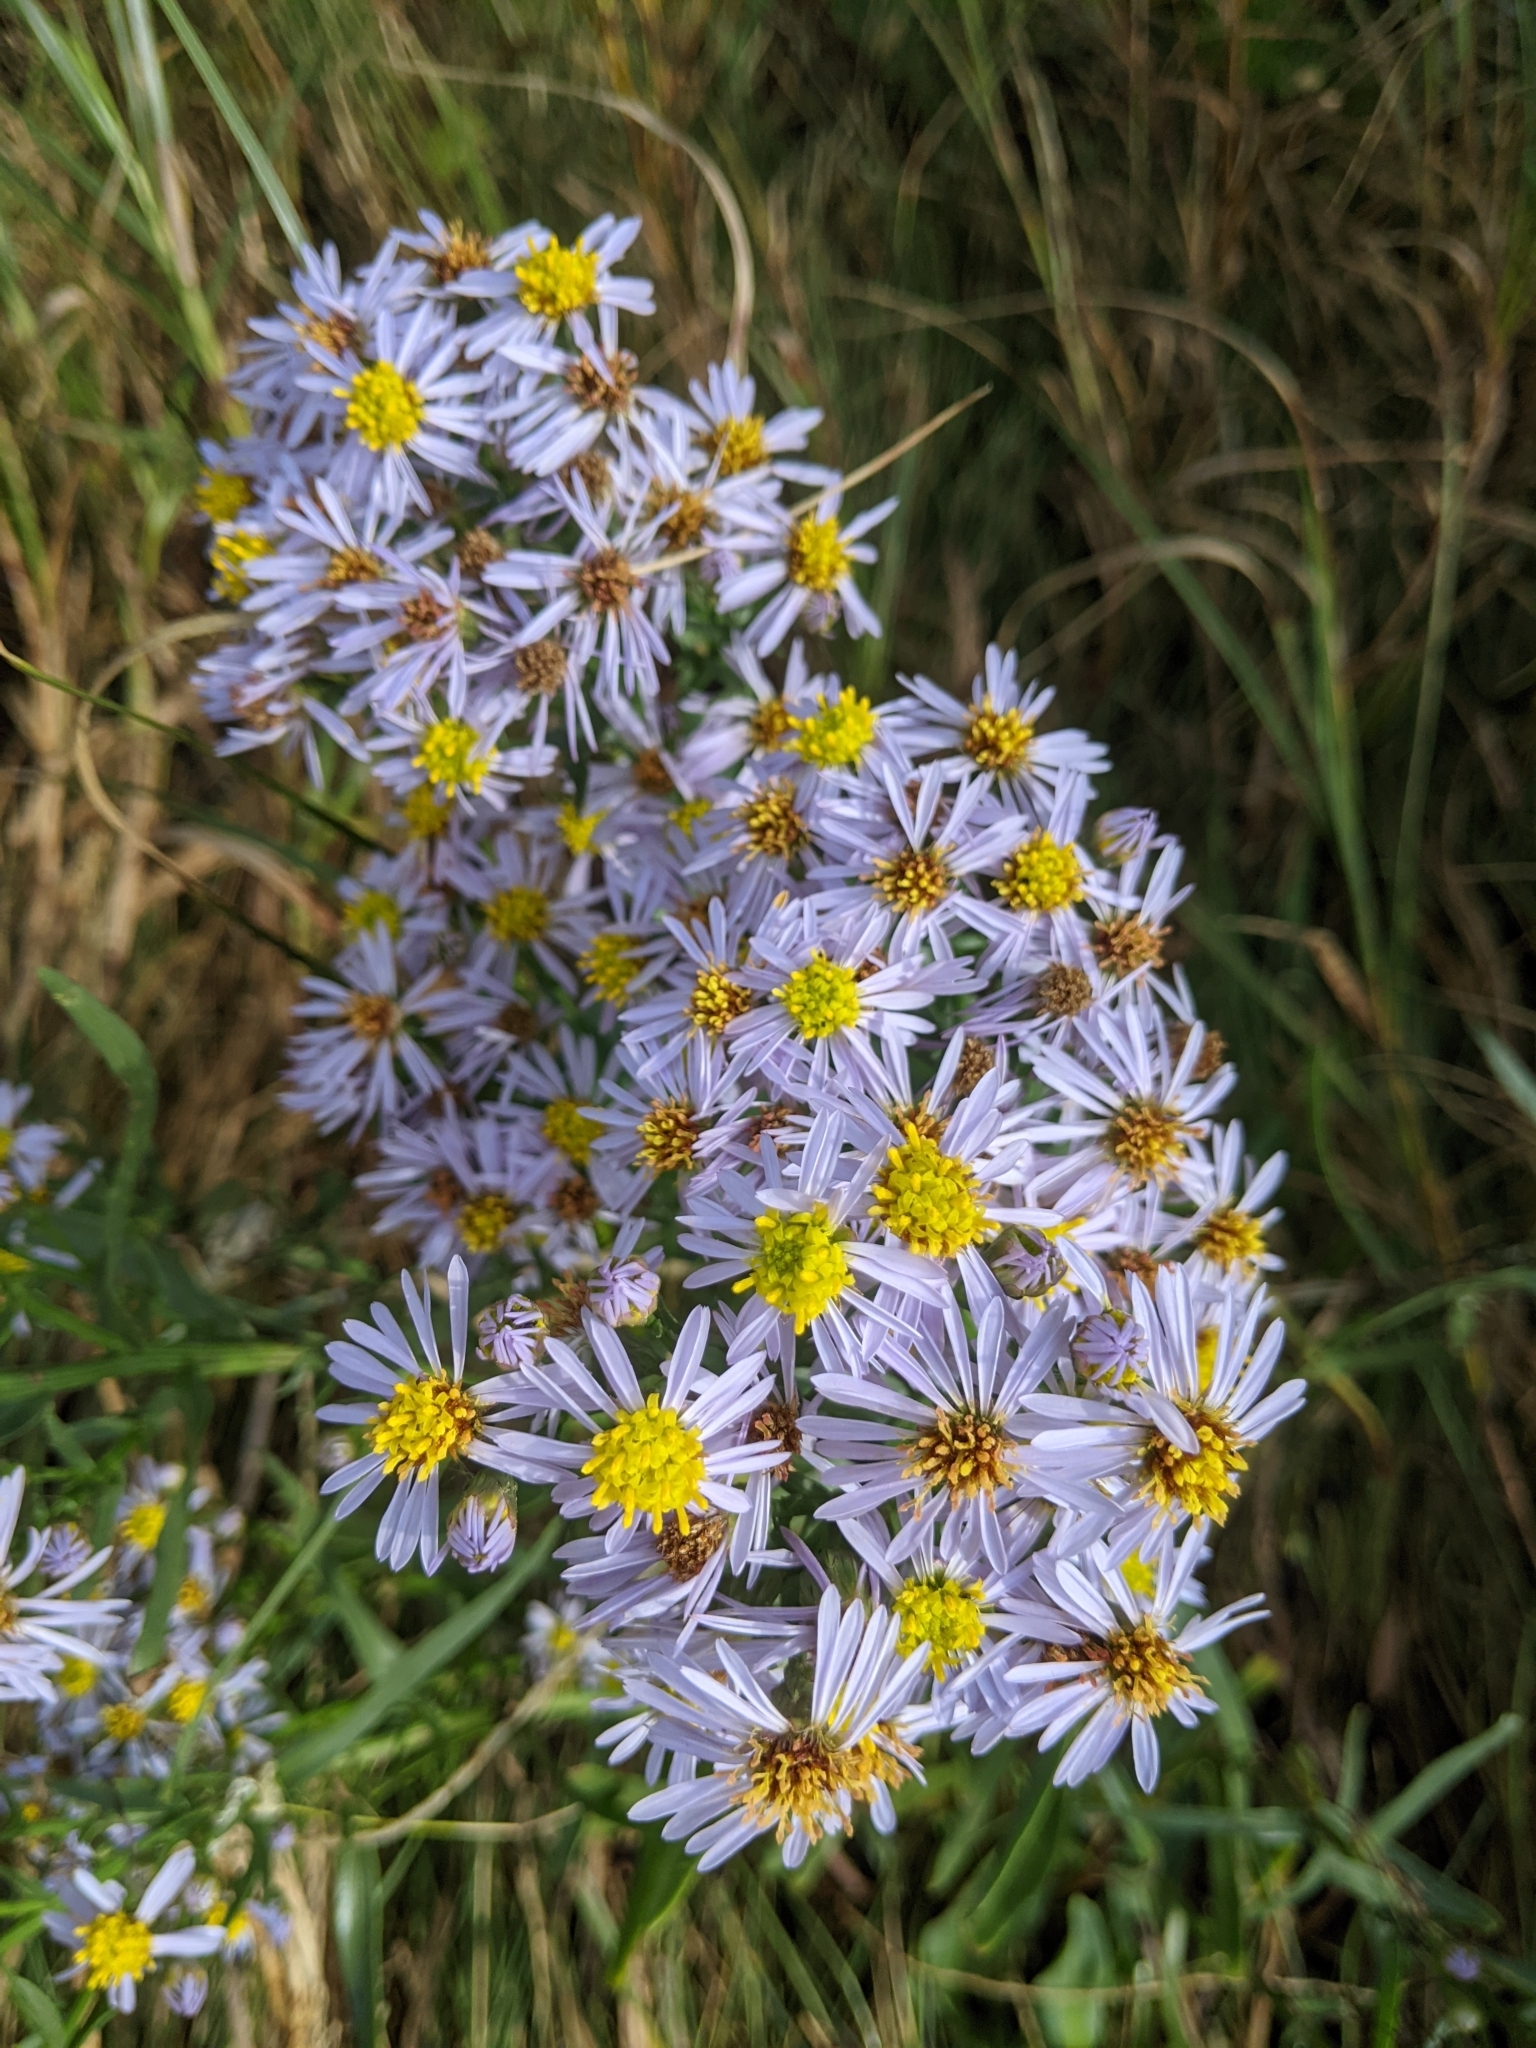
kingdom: Plantae
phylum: Tracheophyta
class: Magnoliopsida
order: Asterales
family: Asteraceae
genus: Tripolium
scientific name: Tripolium pannonicum
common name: Sea aster
